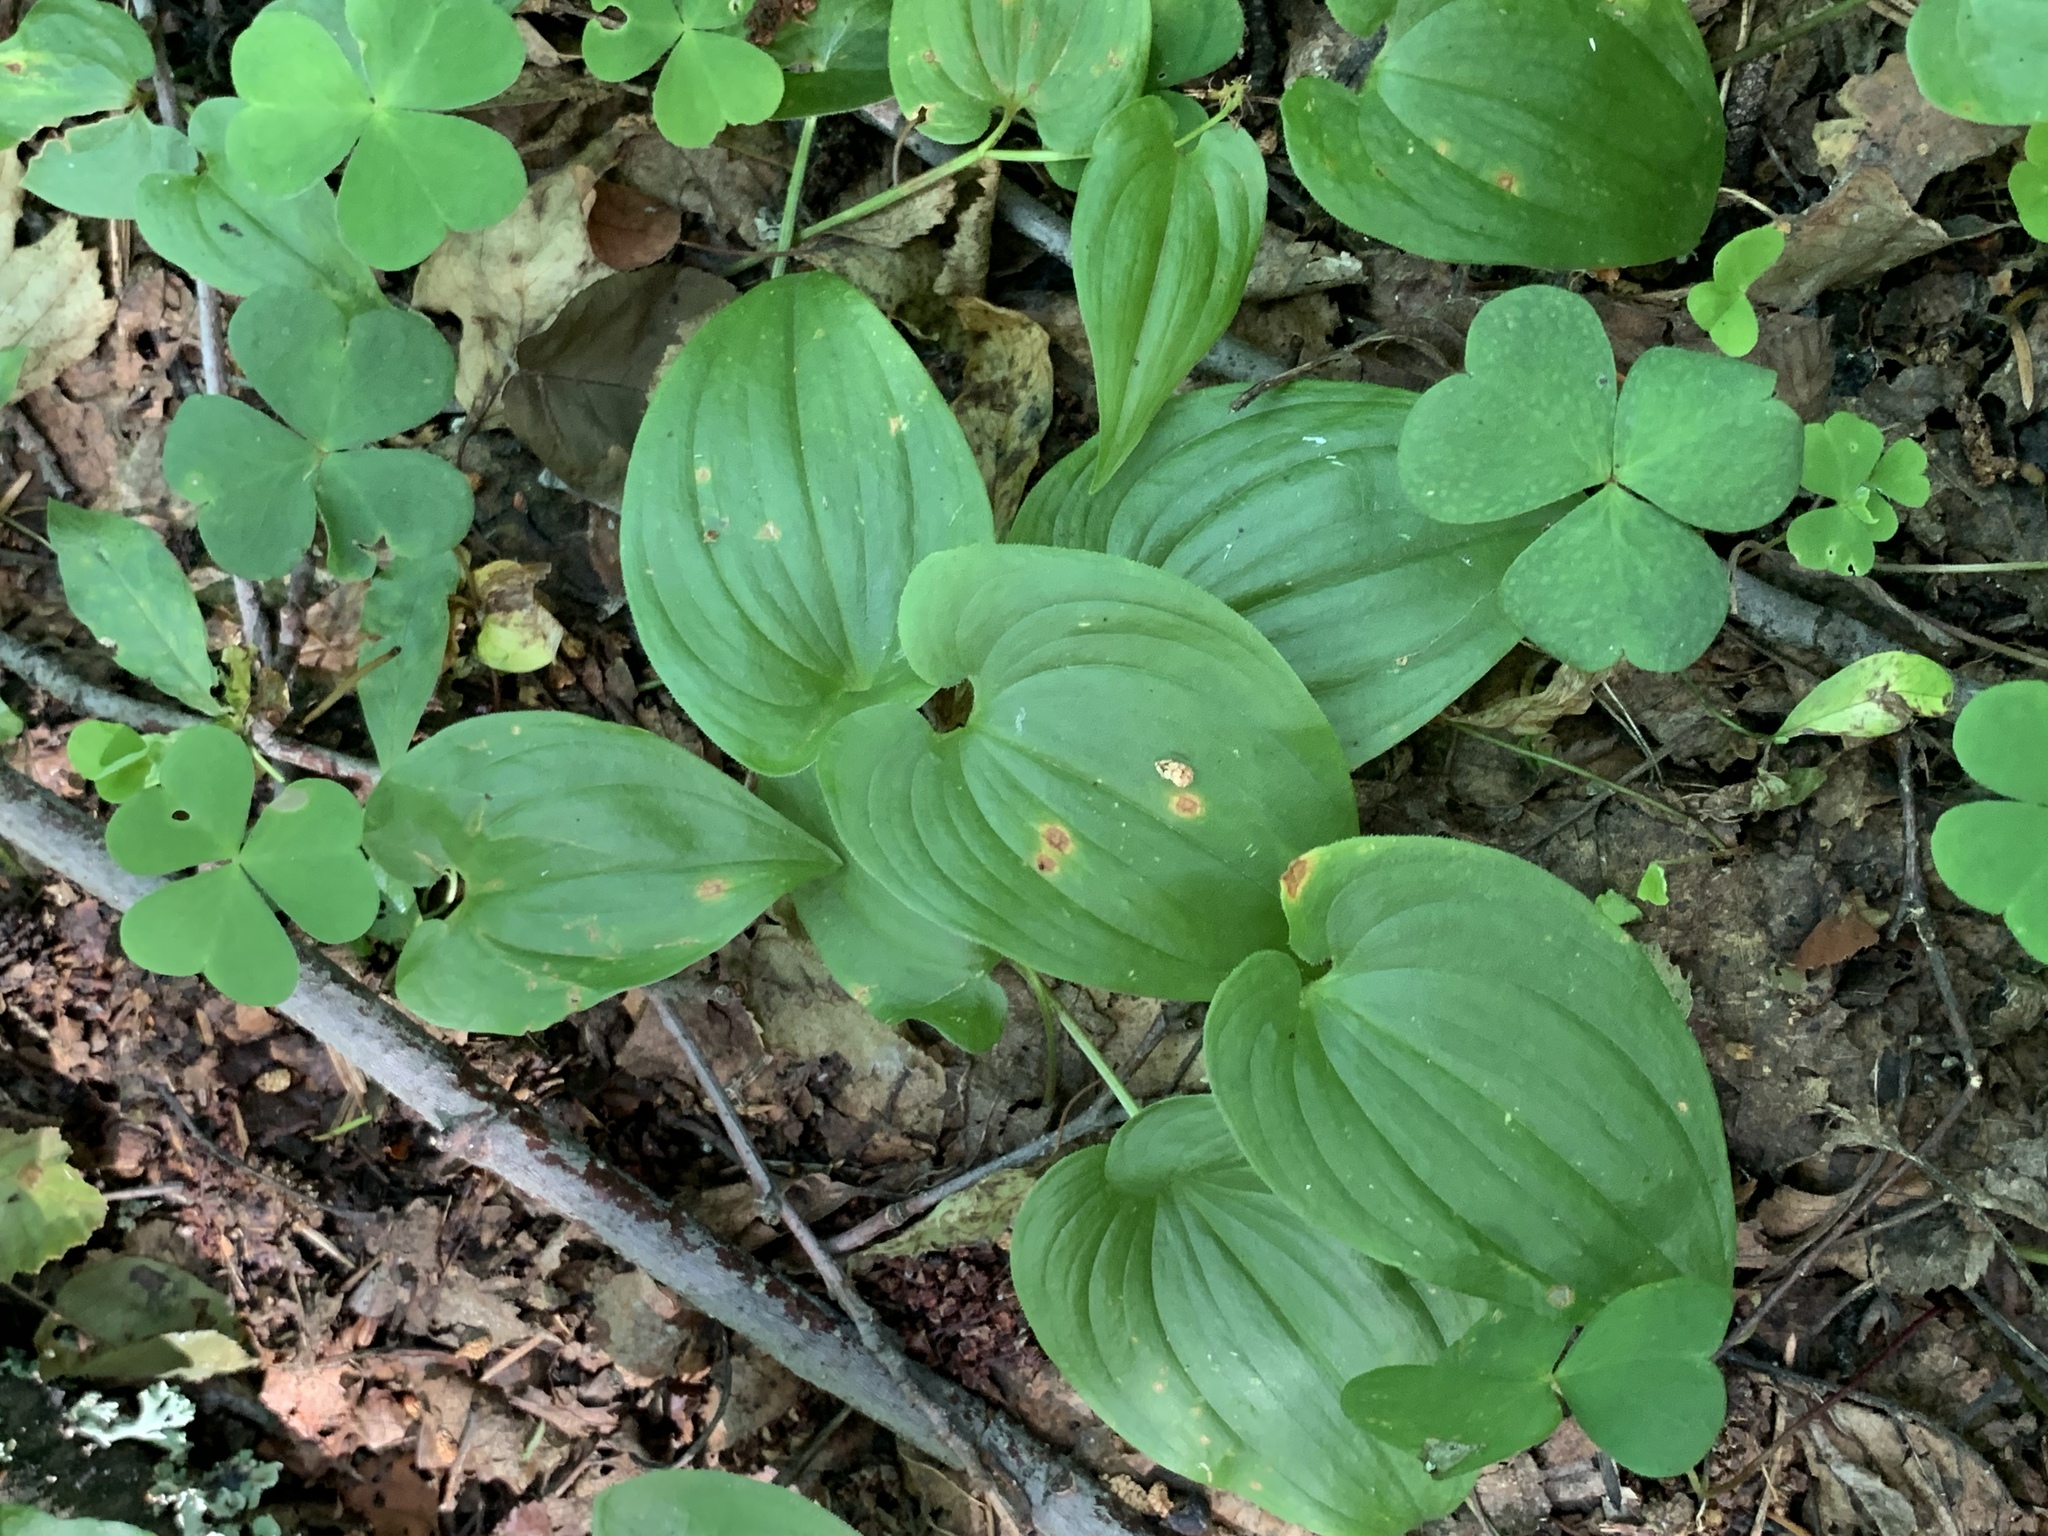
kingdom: Plantae
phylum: Tracheophyta
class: Liliopsida
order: Asparagales
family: Asparagaceae
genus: Maianthemum
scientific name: Maianthemum bifolium
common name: May lily
